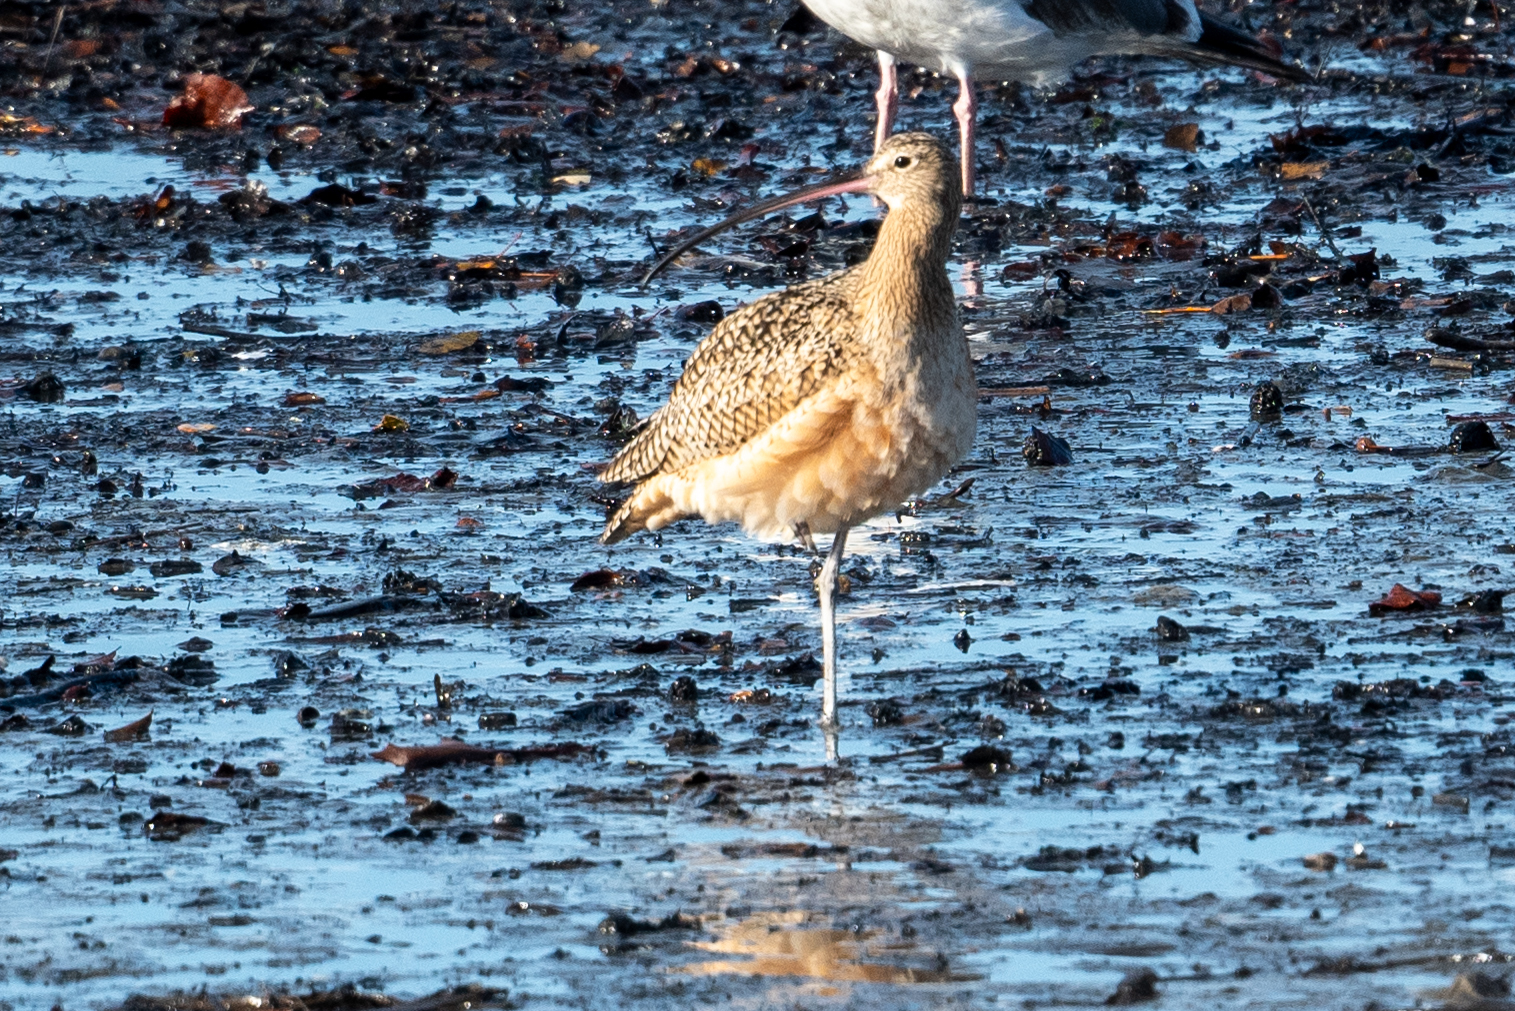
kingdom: Animalia
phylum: Chordata
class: Aves
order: Charadriiformes
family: Scolopacidae
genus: Numenius
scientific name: Numenius americanus
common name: Long-billed curlew
